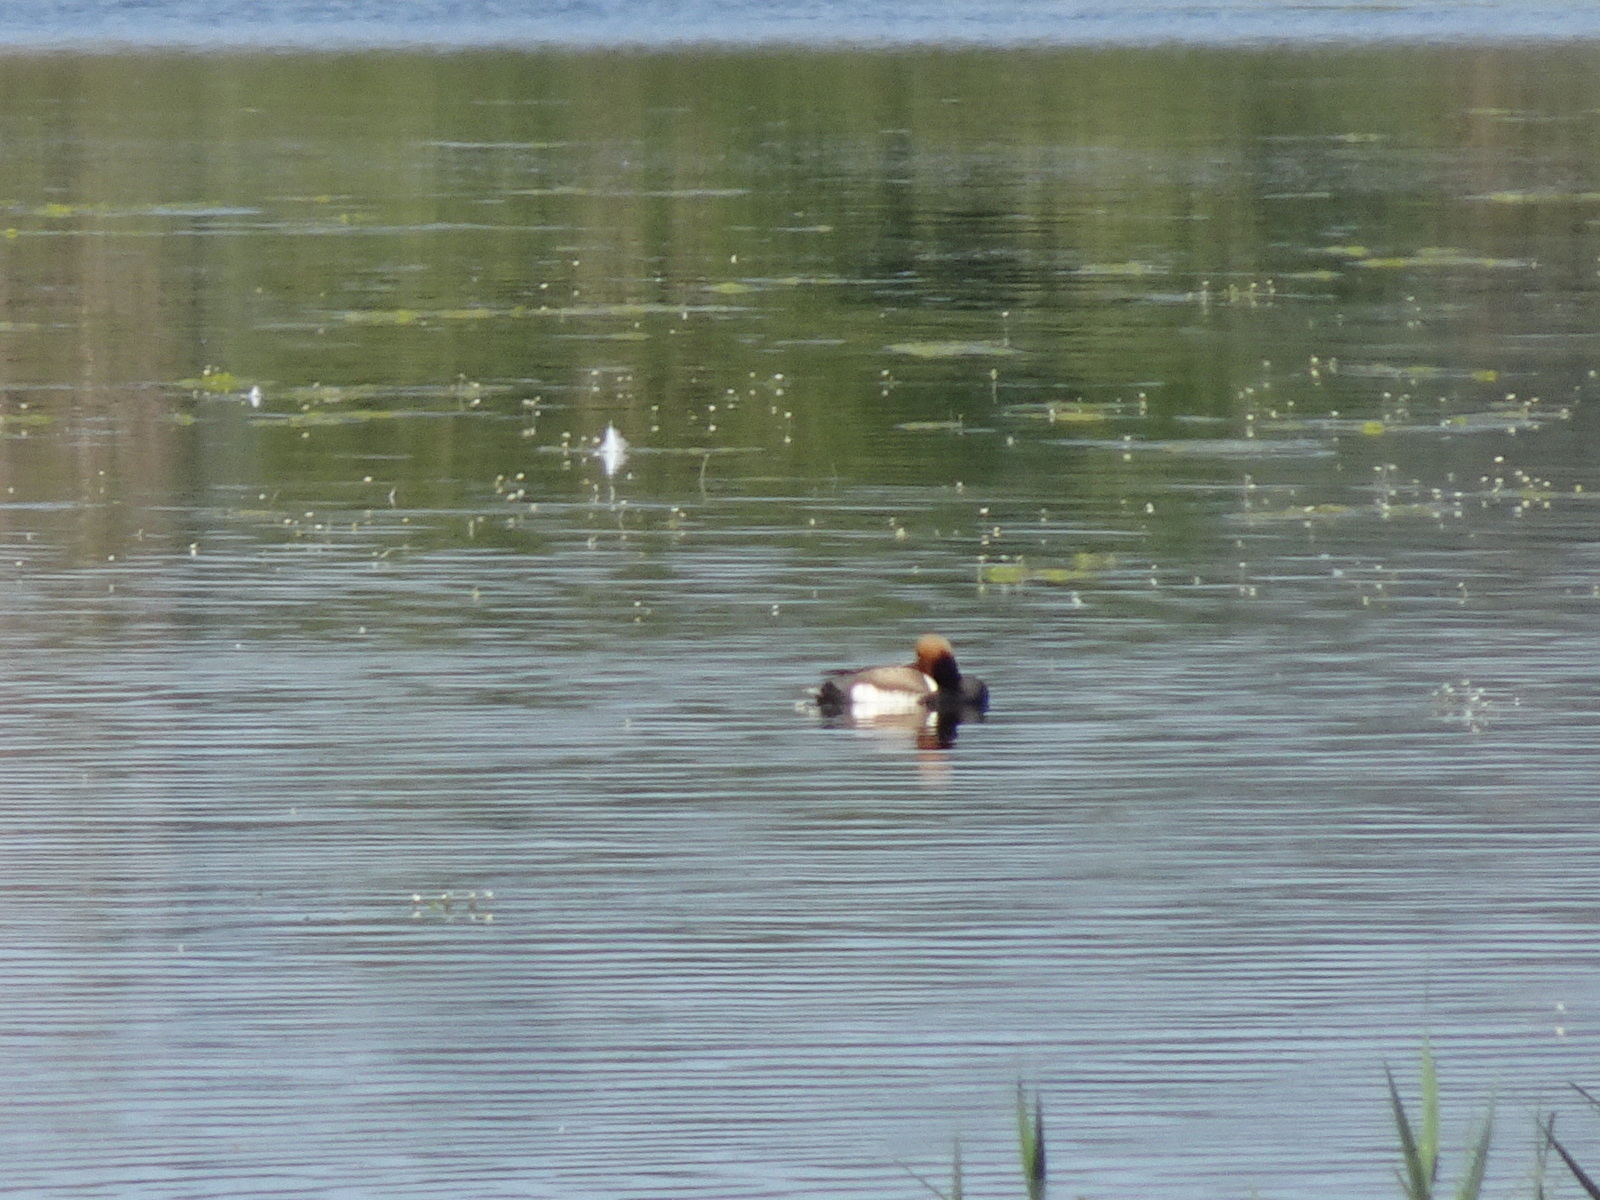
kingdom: Animalia
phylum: Chordata
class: Aves
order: Anseriformes
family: Anatidae
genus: Netta
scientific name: Netta rufina
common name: Red-crested pochard
